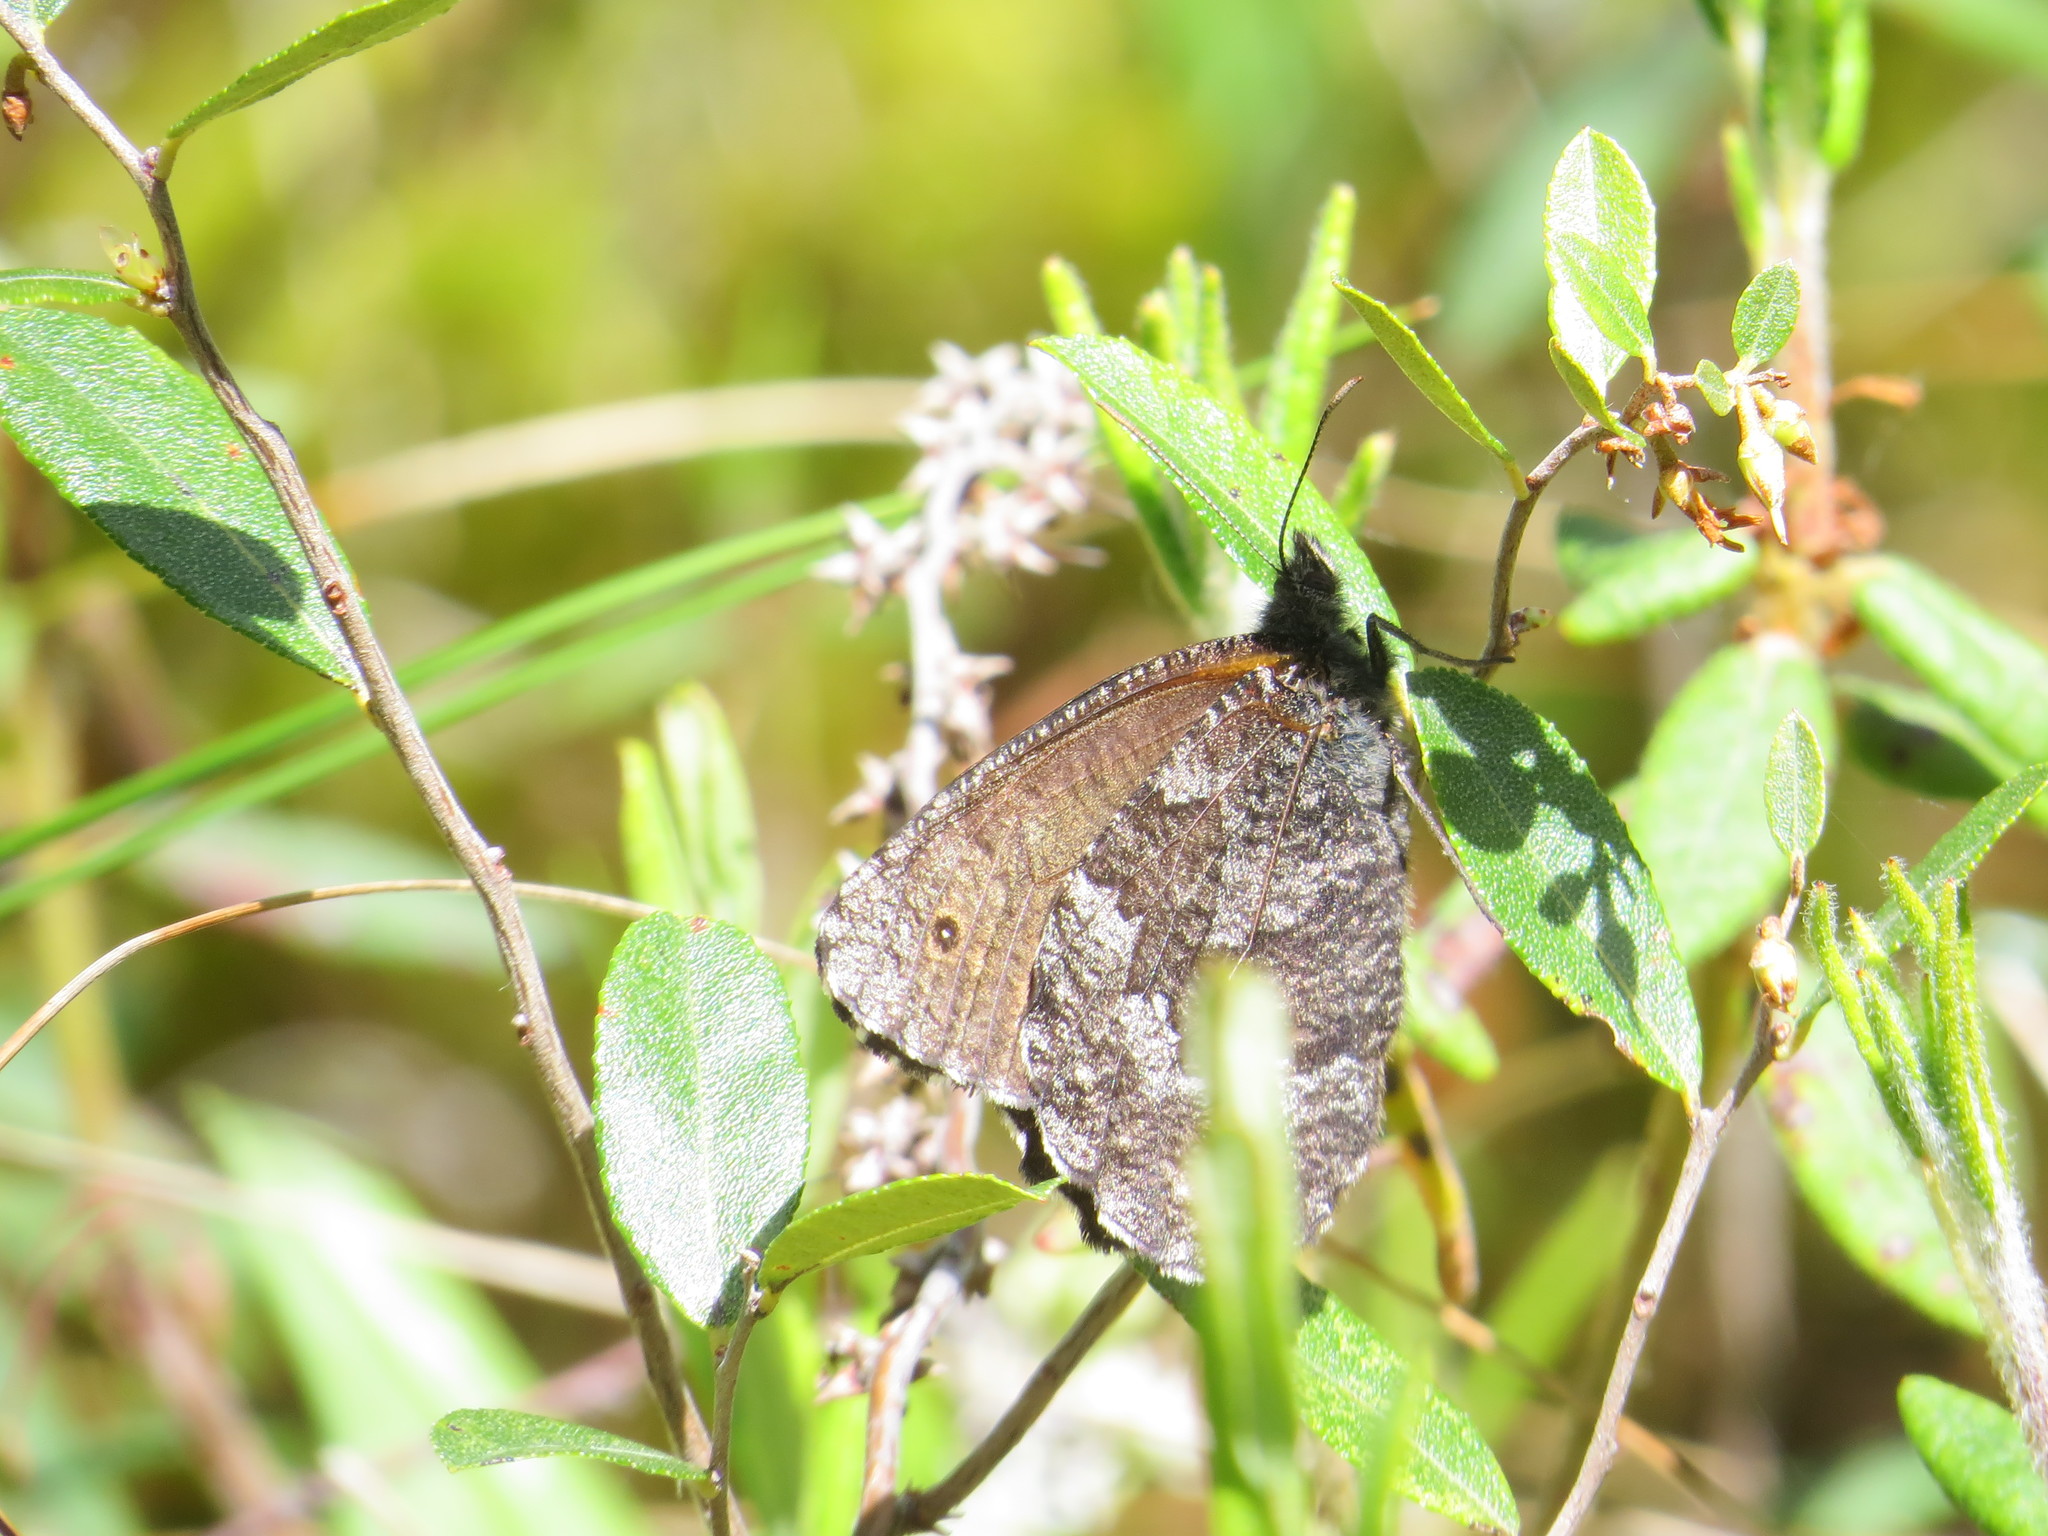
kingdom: Animalia
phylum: Arthropoda
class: Insecta
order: Lepidoptera
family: Nymphalidae
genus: Oeneis
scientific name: Oeneis jutta
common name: Baltic grayling
